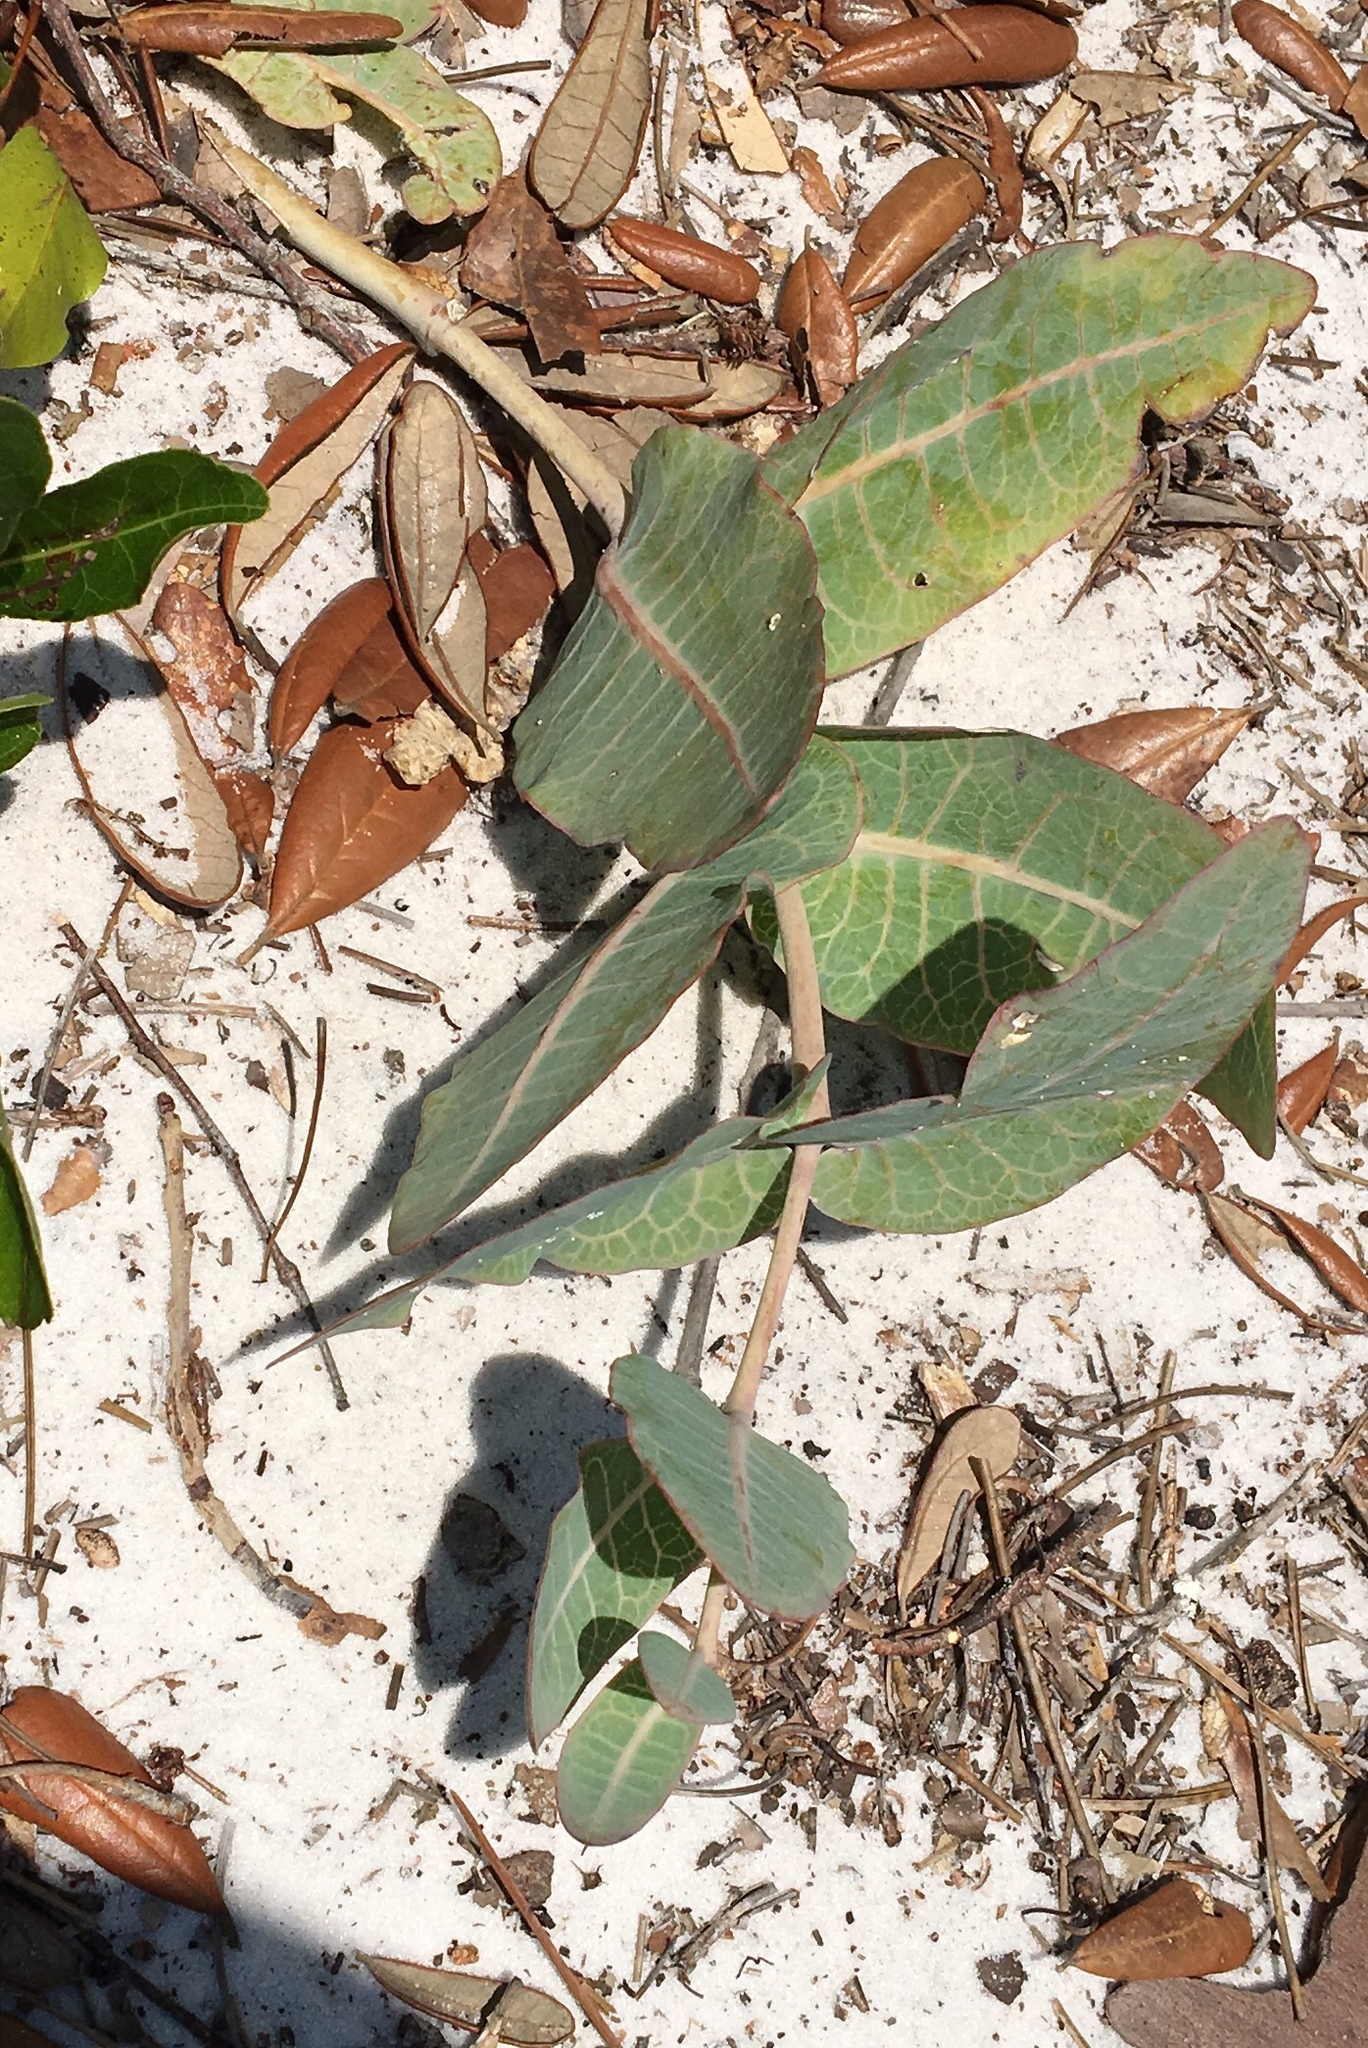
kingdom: Plantae
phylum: Tracheophyta
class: Magnoliopsida
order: Gentianales
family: Apocynaceae
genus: Asclepias
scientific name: Asclepias humistrata
